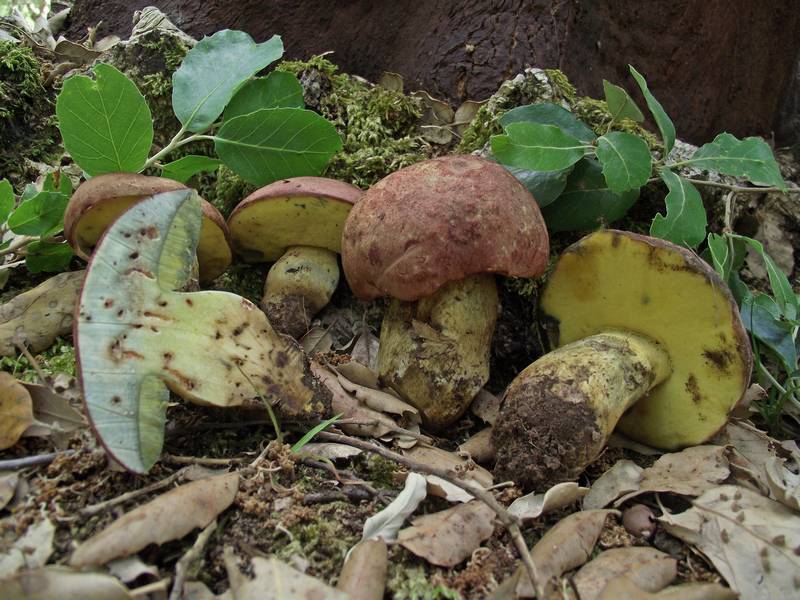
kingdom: Fungi
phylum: Basidiomycota
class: Agaricomycetes
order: Boletales
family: Boletaceae
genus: Butyriboletus
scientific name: Butyriboletus fuscoroseus
